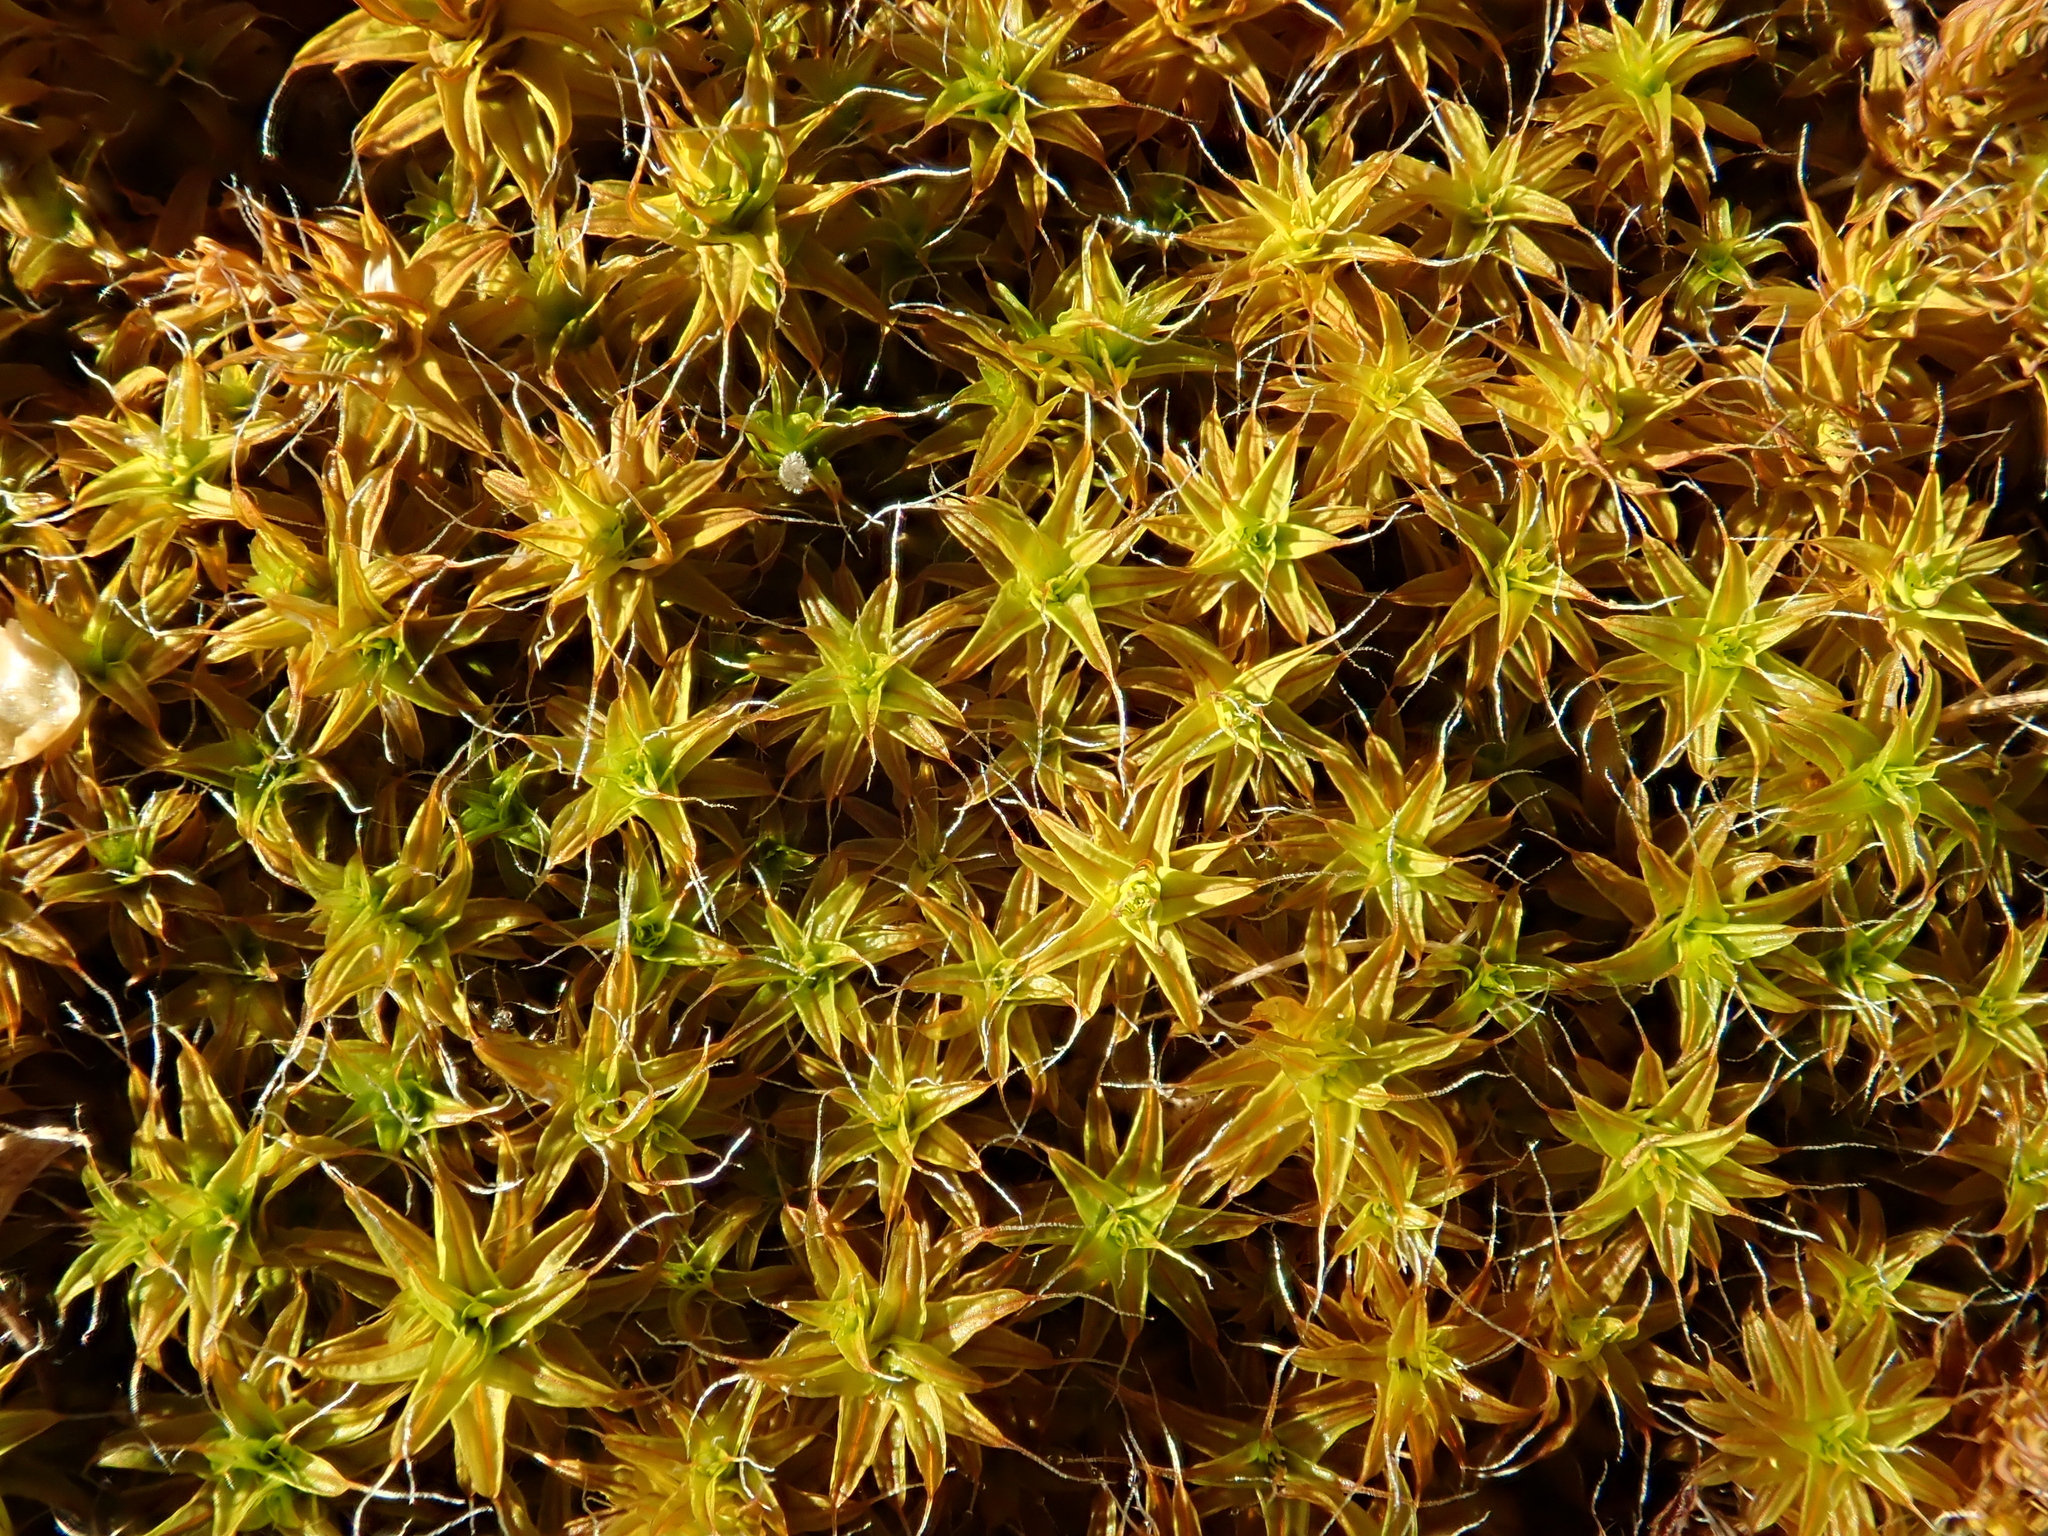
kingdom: Plantae
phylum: Bryophyta
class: Bryopsida
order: Pottiales
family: Pottiaceae
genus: Syntrichia
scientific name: Syntrichia ruralis
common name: Sidewalk screw moss
